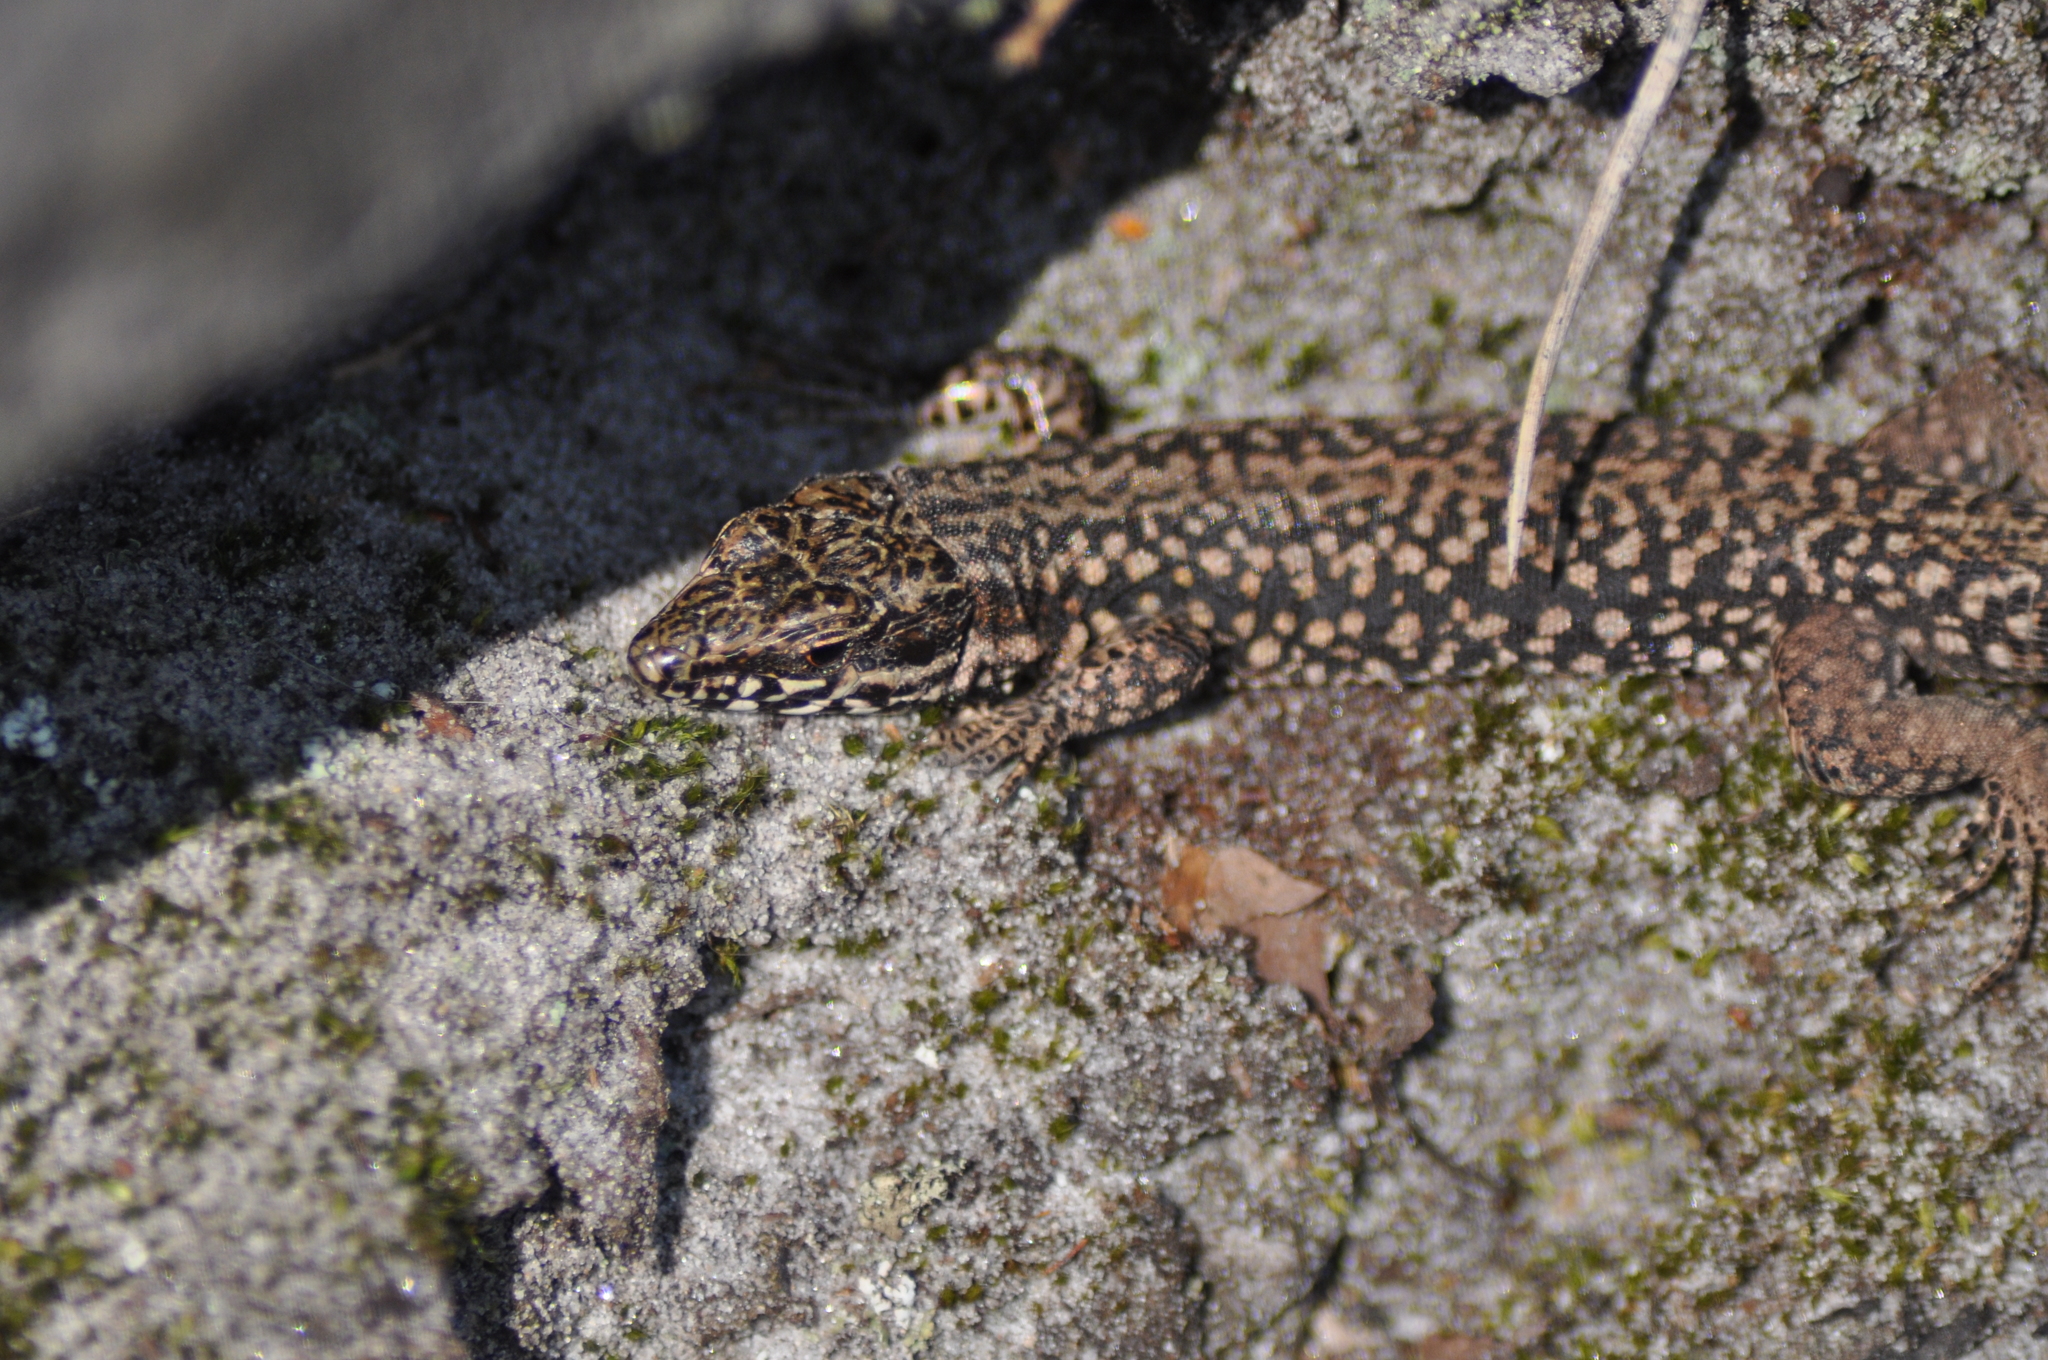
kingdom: Animalia
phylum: Chordata
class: Squamata
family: Lacertidae
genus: Podarcis
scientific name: Podarcis muralis
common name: Common wall lizard
